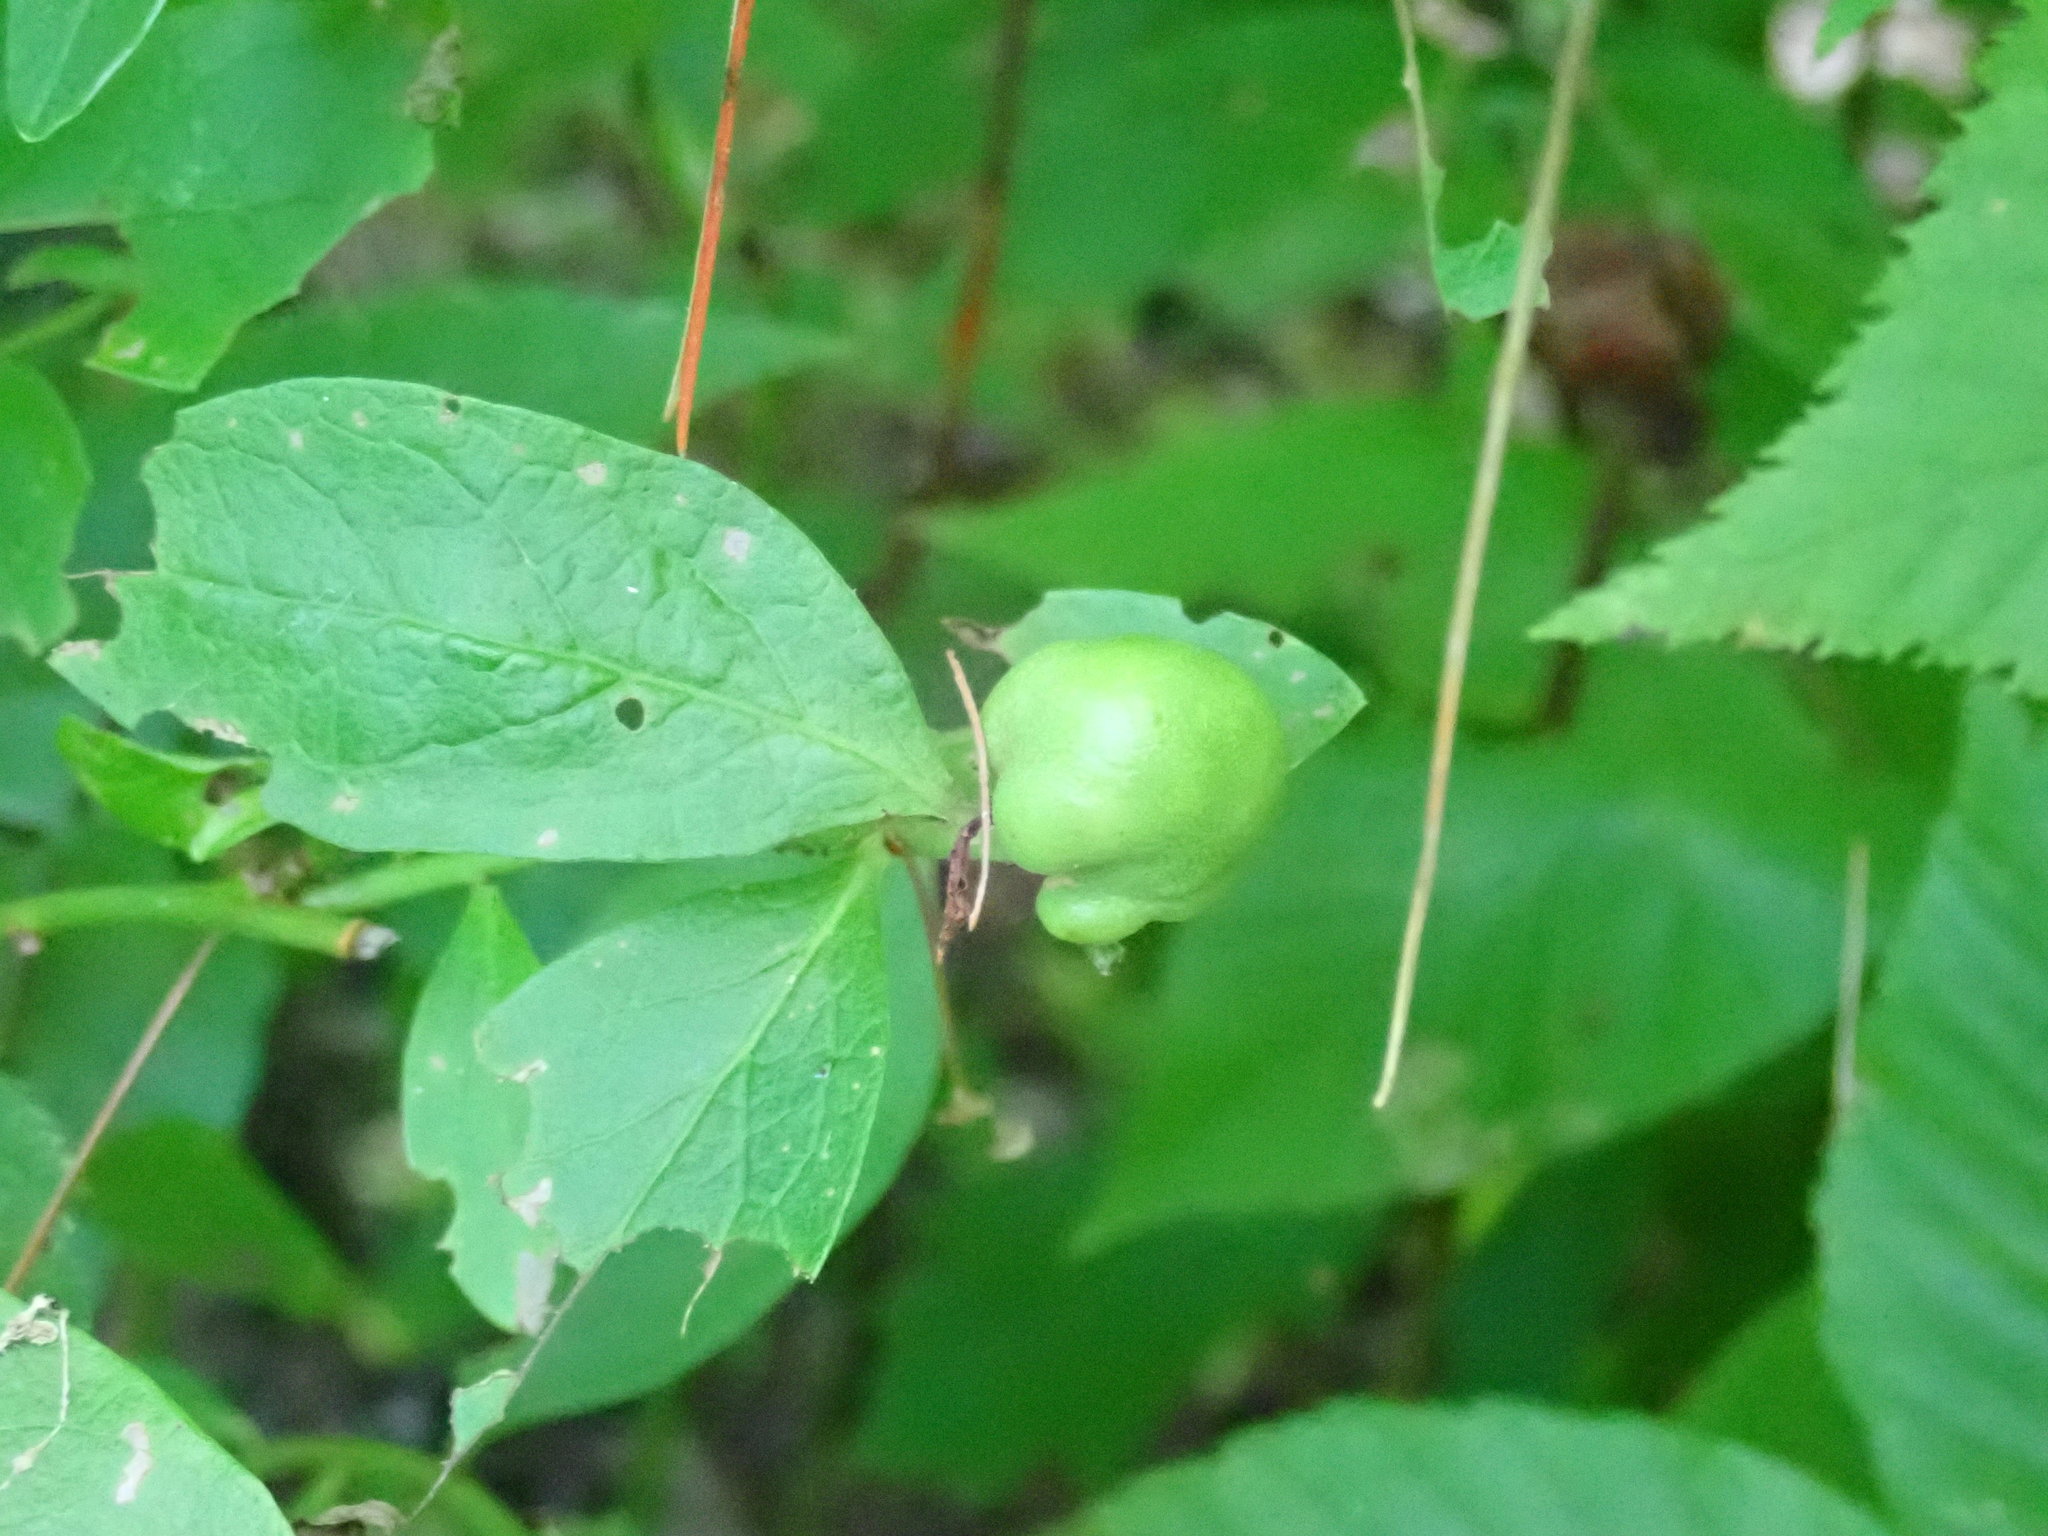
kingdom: Animalia
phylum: Arthropoda
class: Insecta
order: Hymenoptera
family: Pteromalidae
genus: Hemadas
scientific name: Hemadas nubilipennis
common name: Blueberry stem gall wasp
